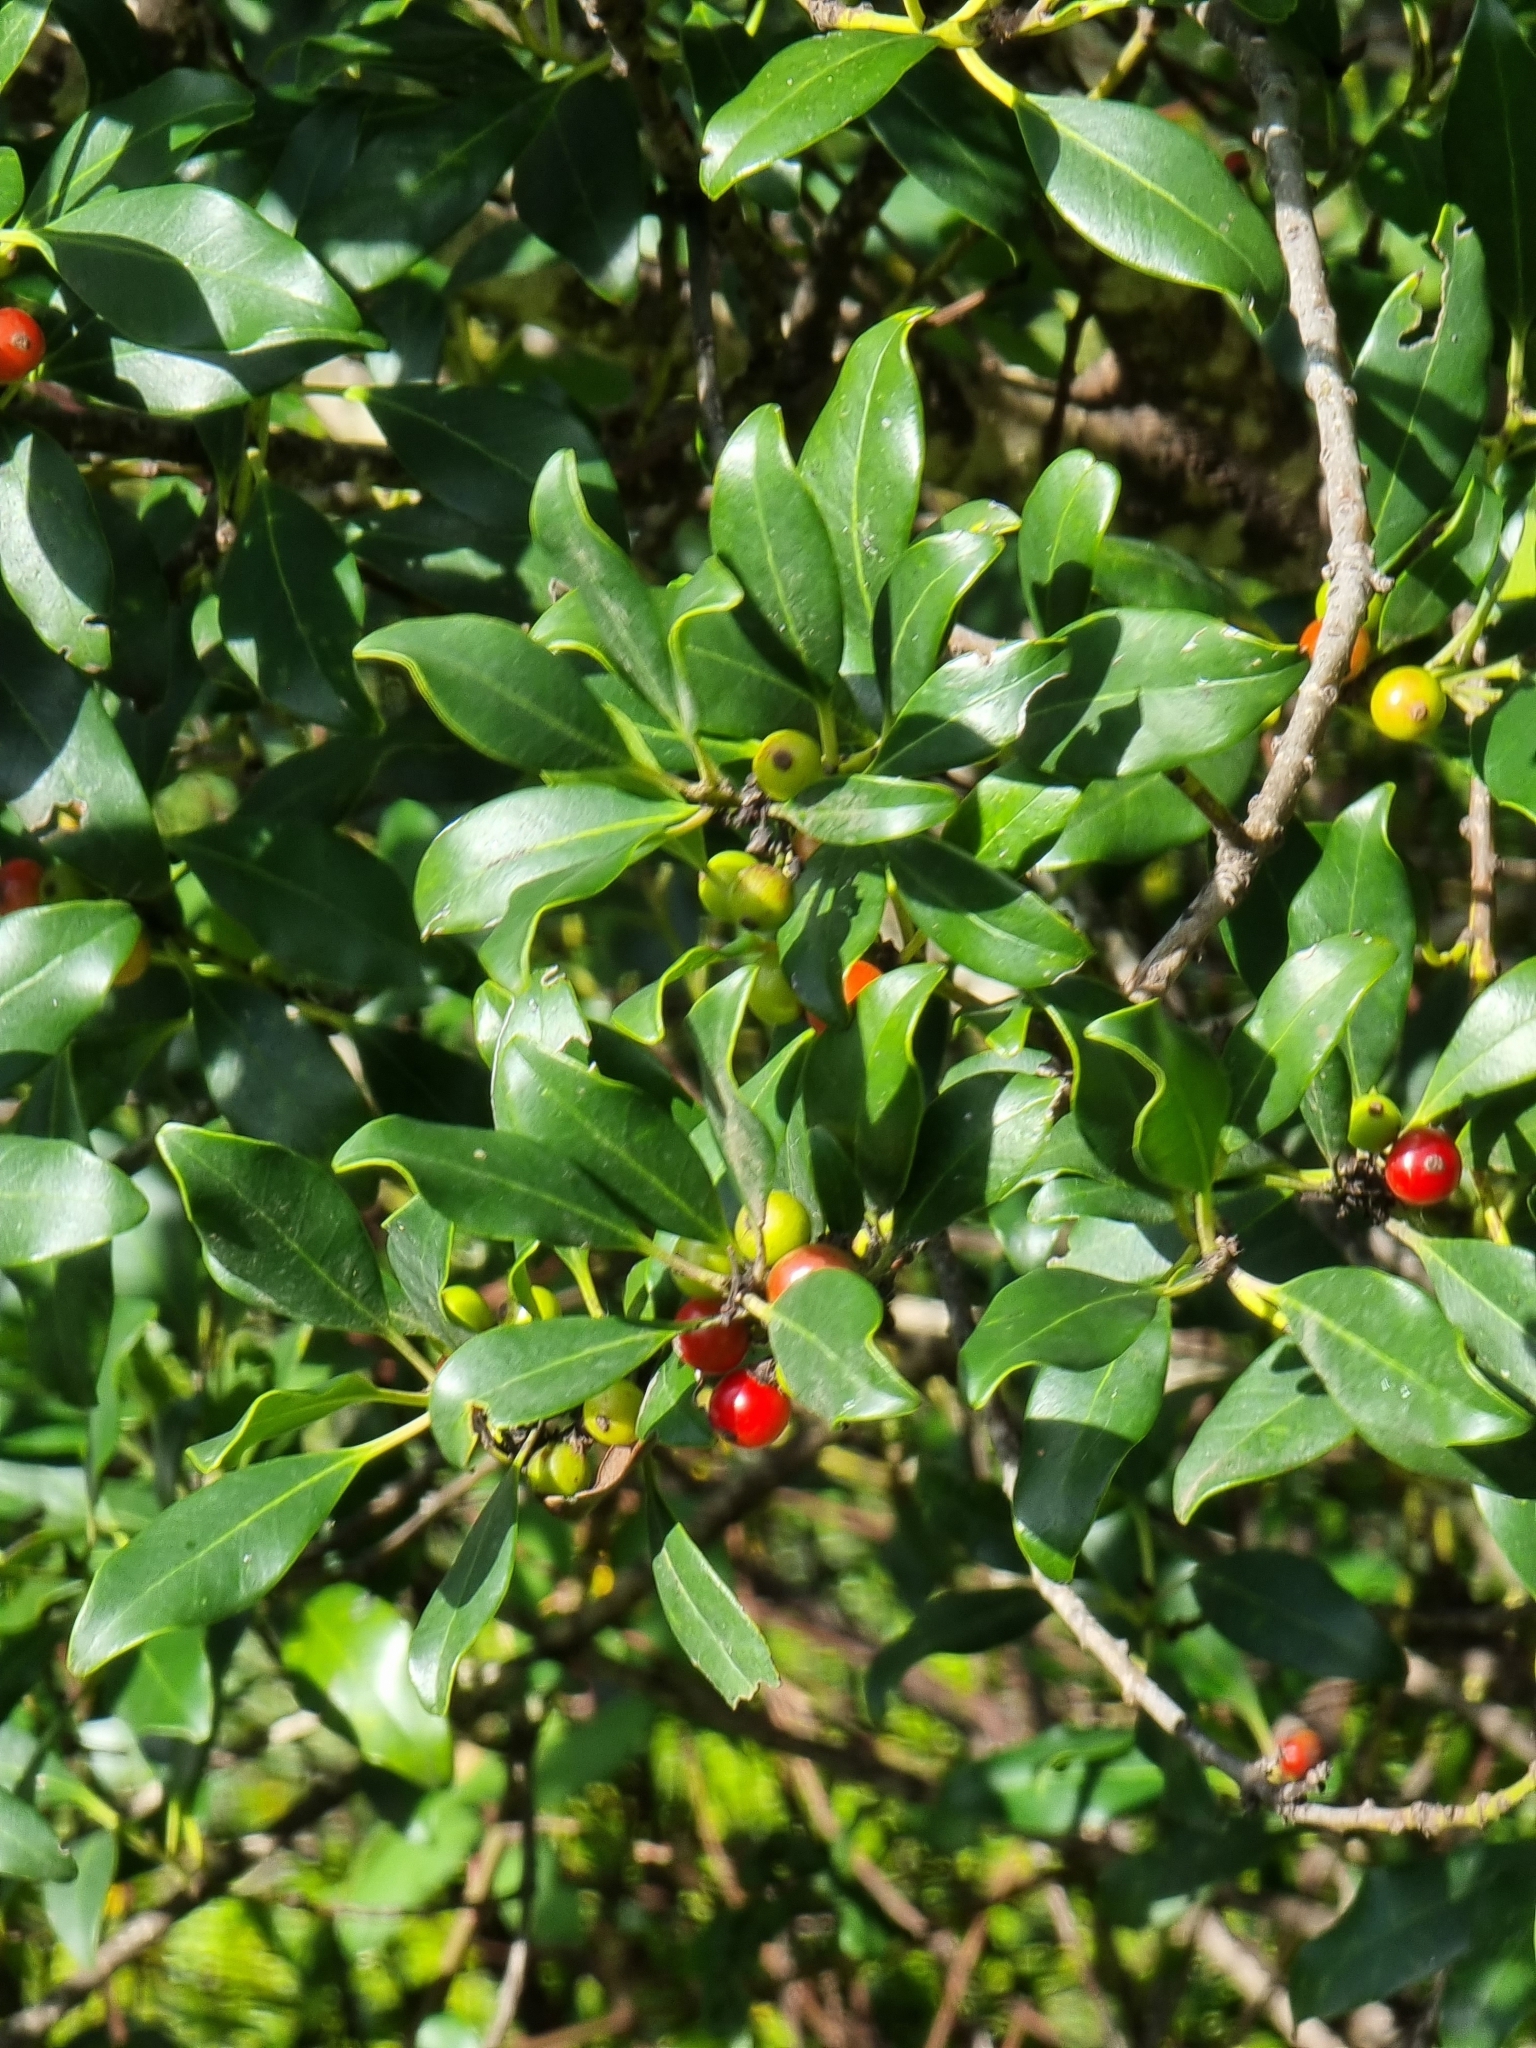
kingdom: Plantae
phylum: Tracheophyta
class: Magnoliopsida
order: Aquifoliales
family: Aquifoliaceae
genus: Ilex
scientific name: Ilex canariensis
